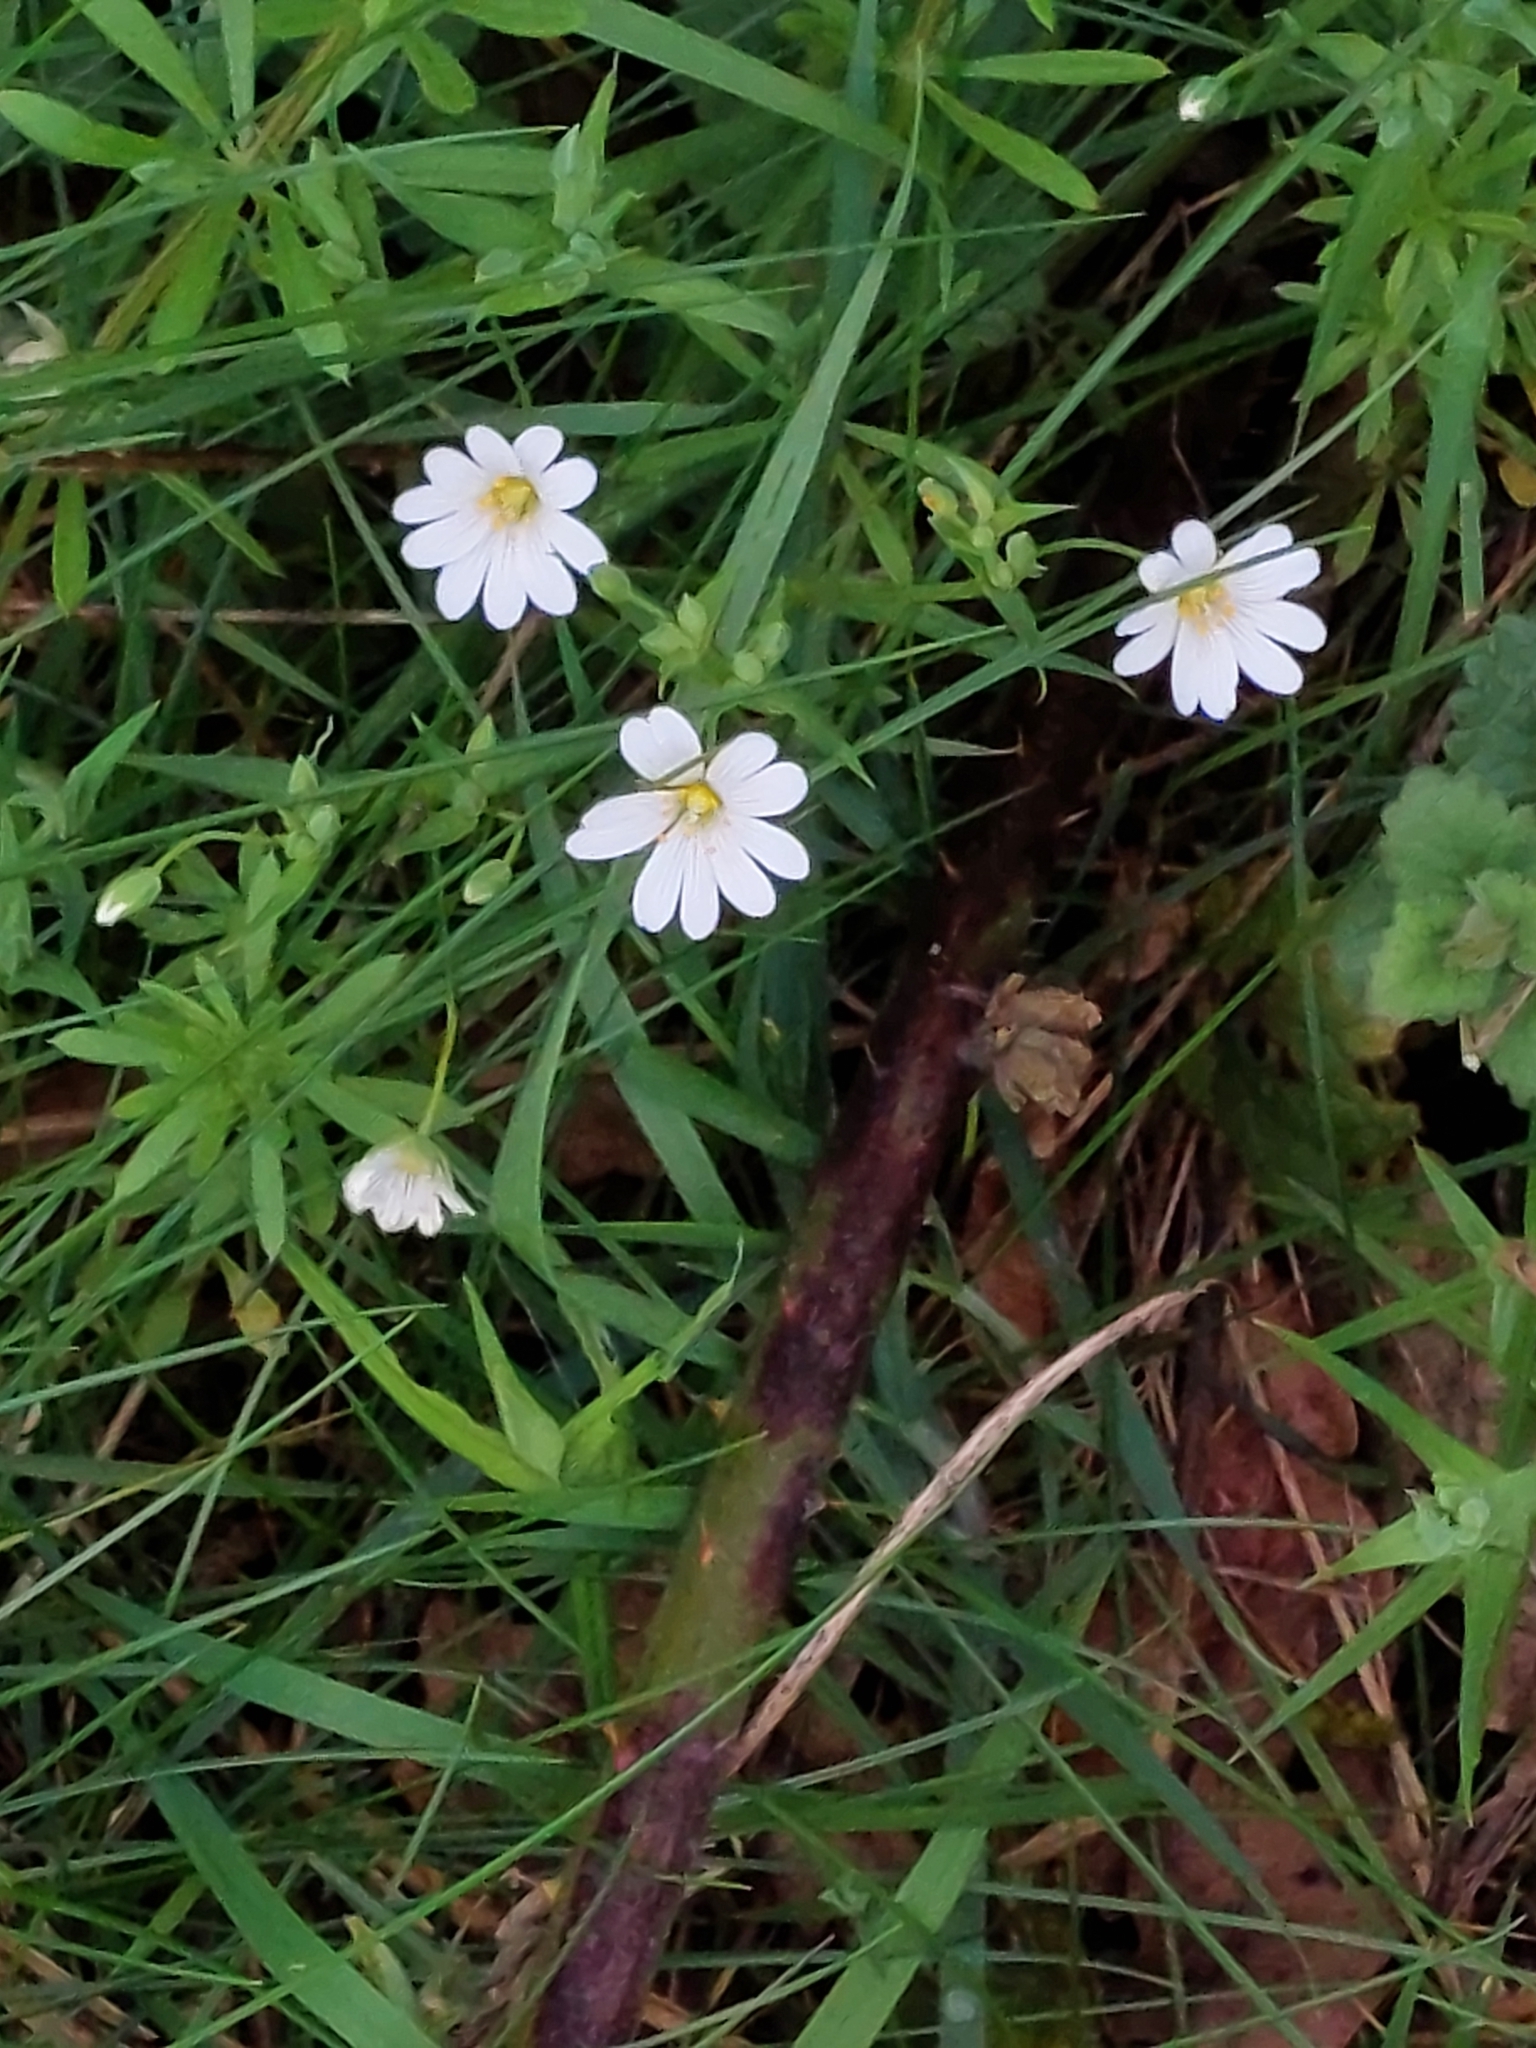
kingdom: Plantae
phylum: Tracheophyta
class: Magnoliopsida
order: Caryophyllales
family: Caryophyllaceae
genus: Rabelera
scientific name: Rabelera holostea
